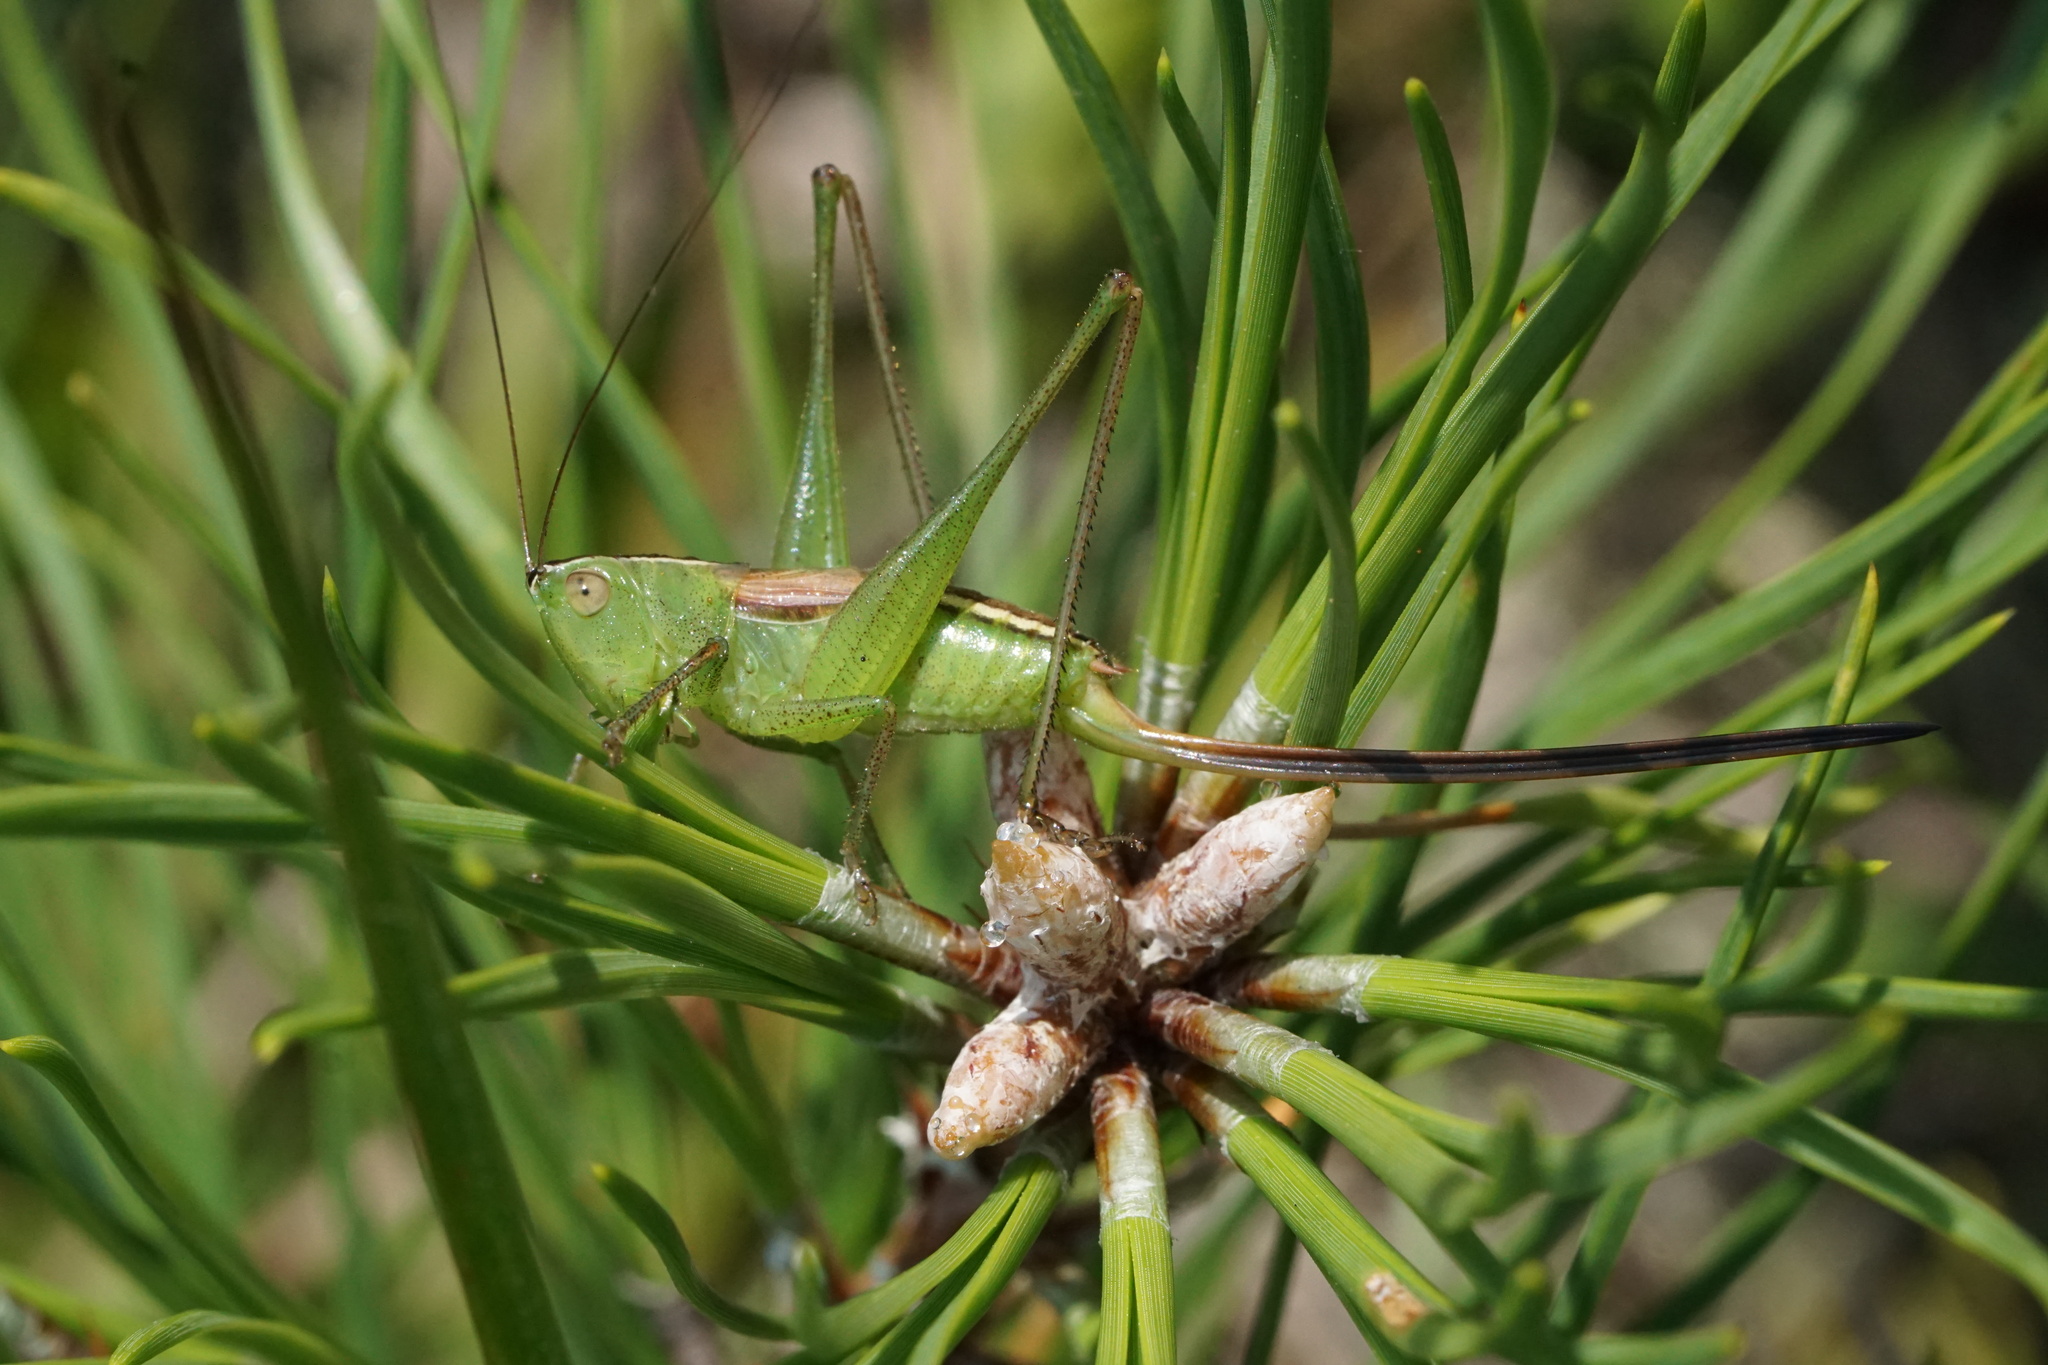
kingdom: Animalia
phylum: Arthropoda
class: Insecta
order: Orthoptera
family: Tettigoniidae
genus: Conocephalus
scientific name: Conocephalus strictus
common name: Straight-lanced katydid
